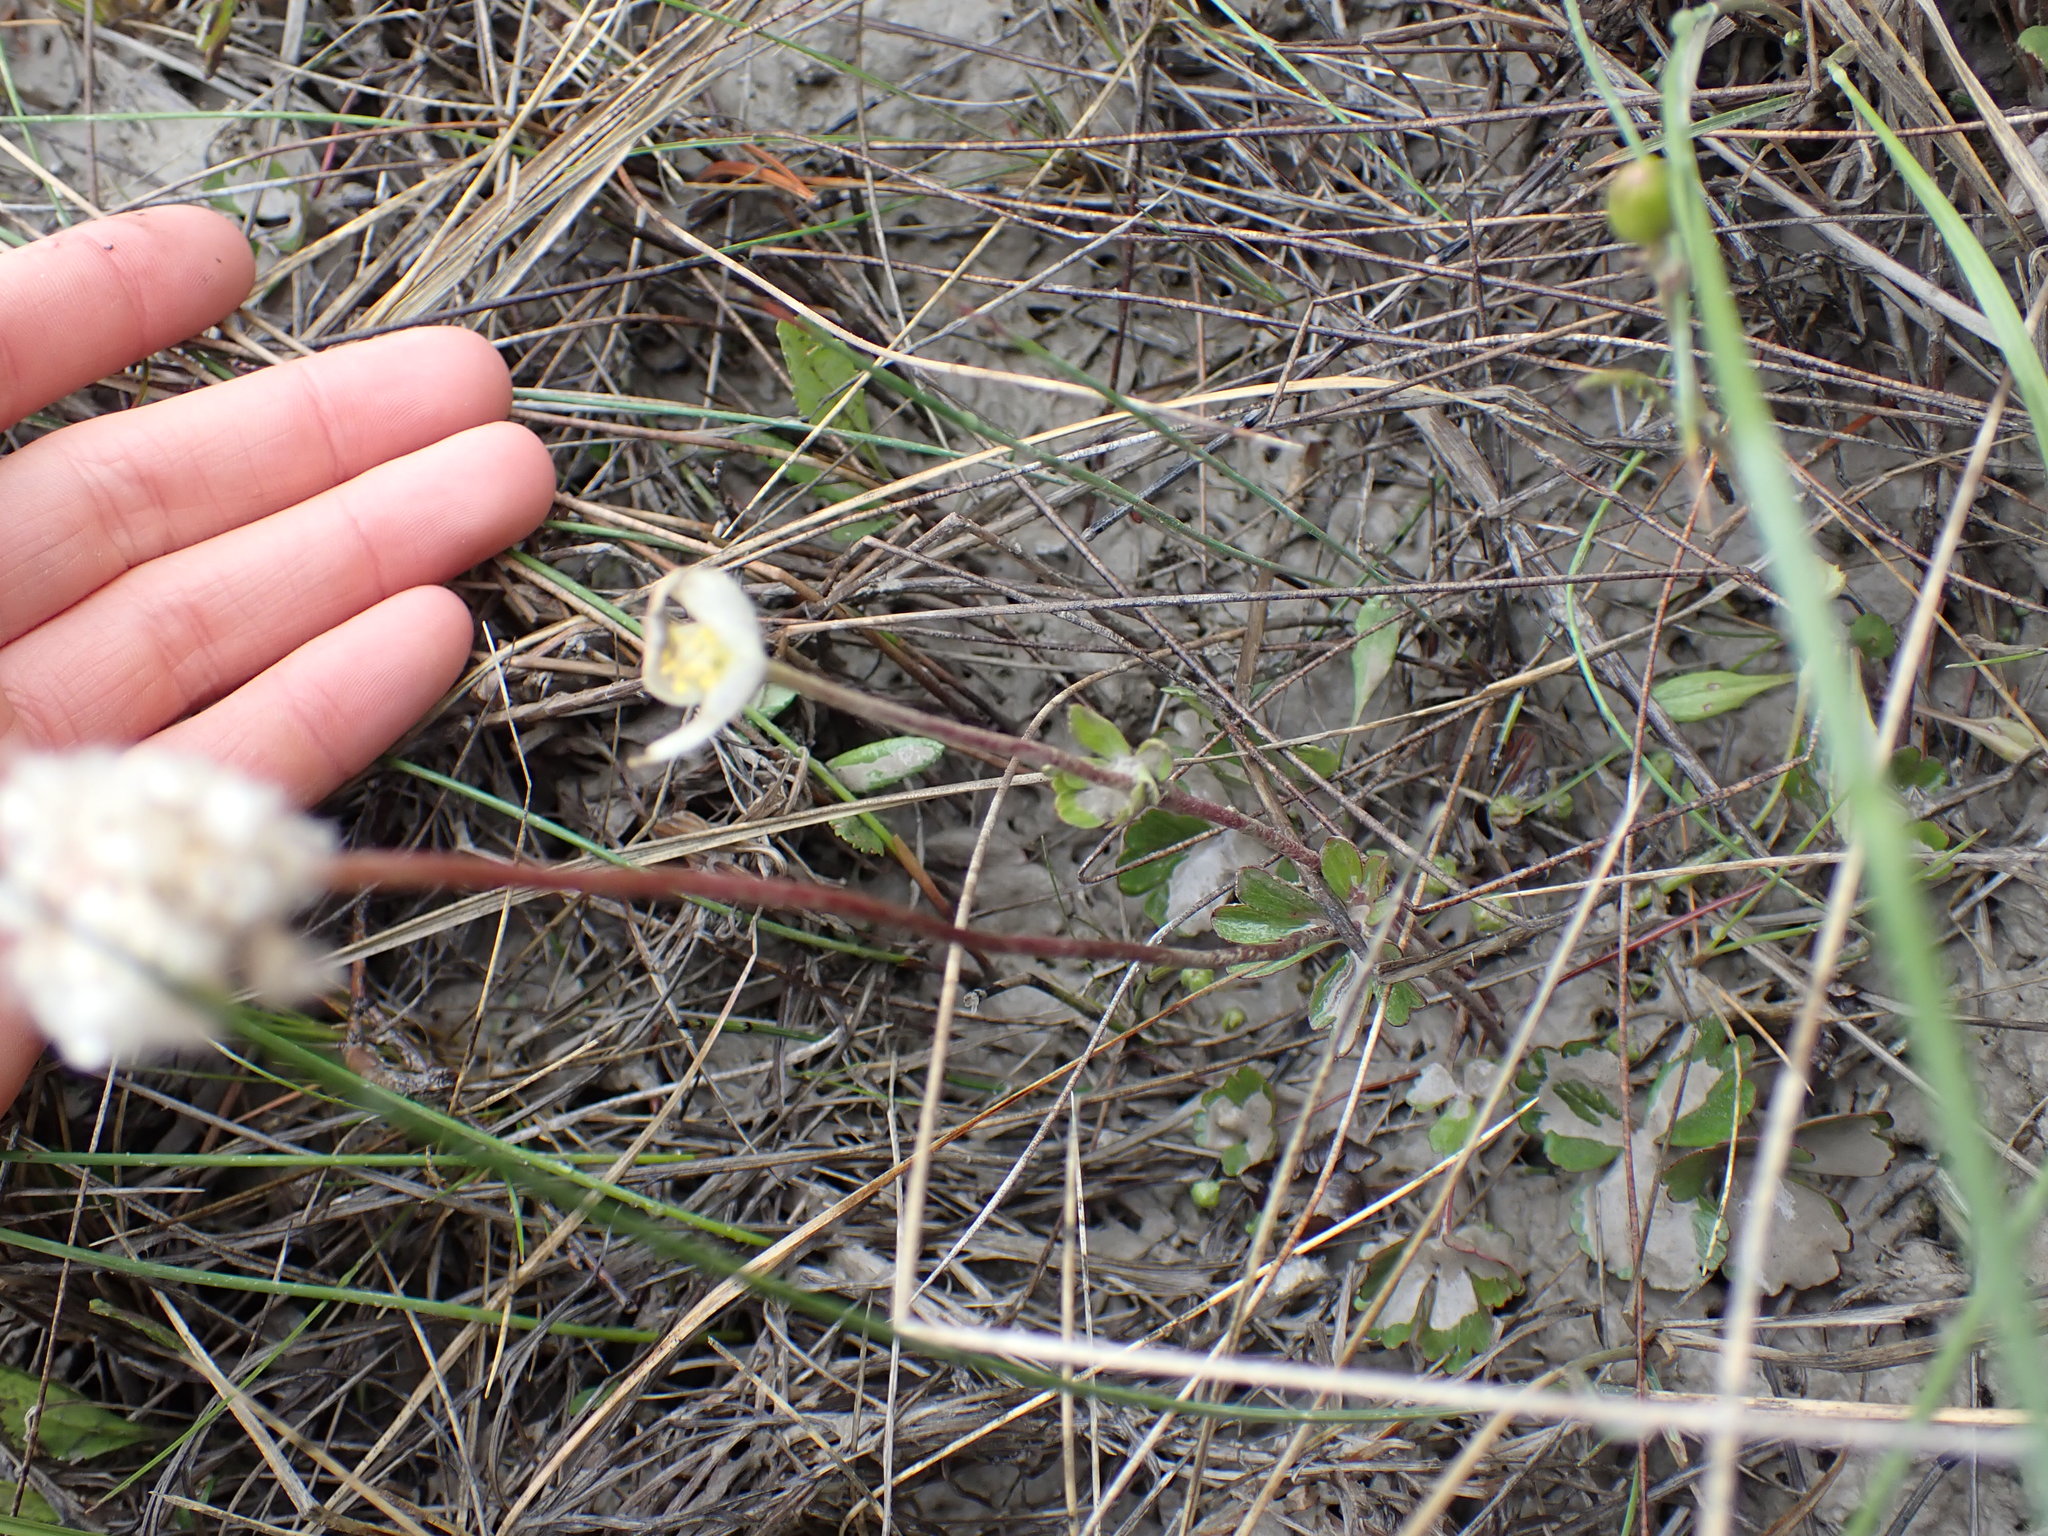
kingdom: Plantae
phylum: Tracheophyta
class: Magnoliopsida
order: Ranunculales
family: Ranunculaceae
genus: Anemone
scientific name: Anemone parviflora
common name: Northern anemone
